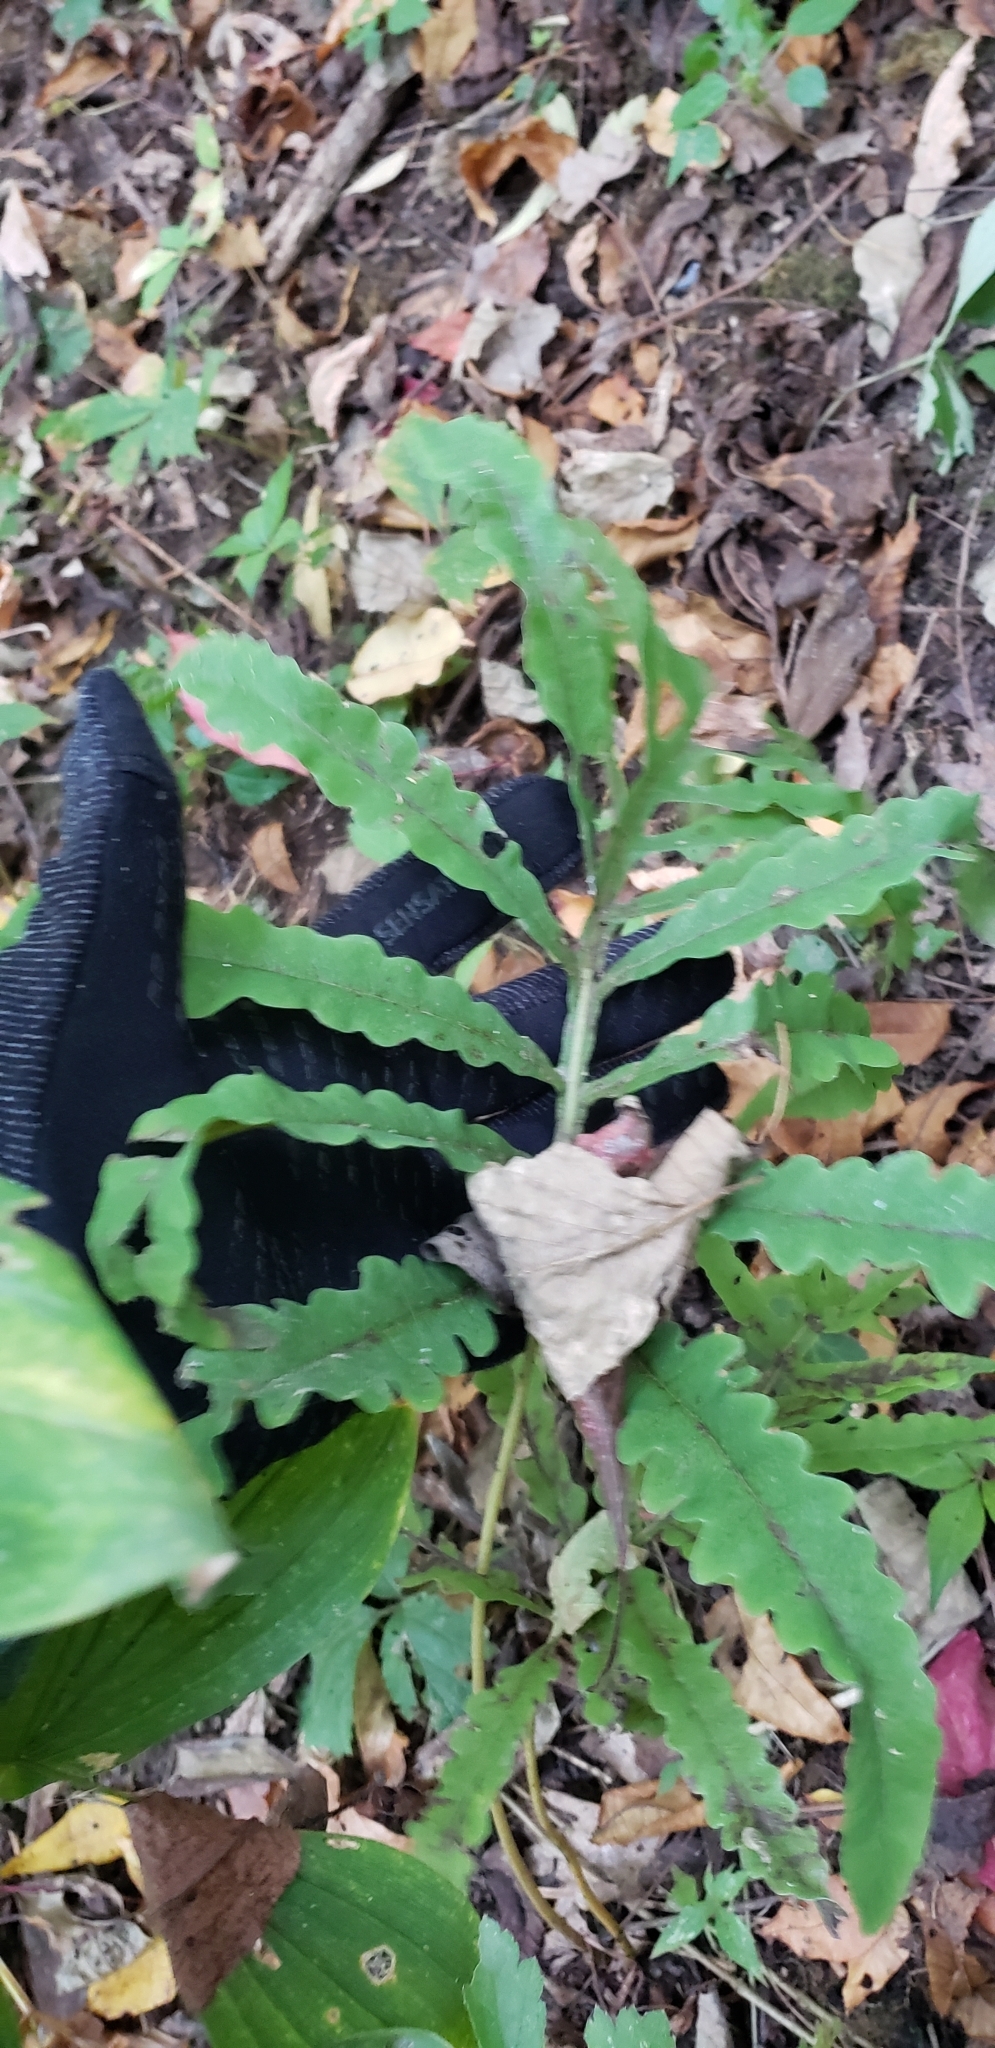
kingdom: Plantae
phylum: Tracheophyta
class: Polypodiopsida
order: Polypodiales
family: Onocleaceae
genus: Onoclea
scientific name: Onoclea sensibilis
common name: Sensitive fern
